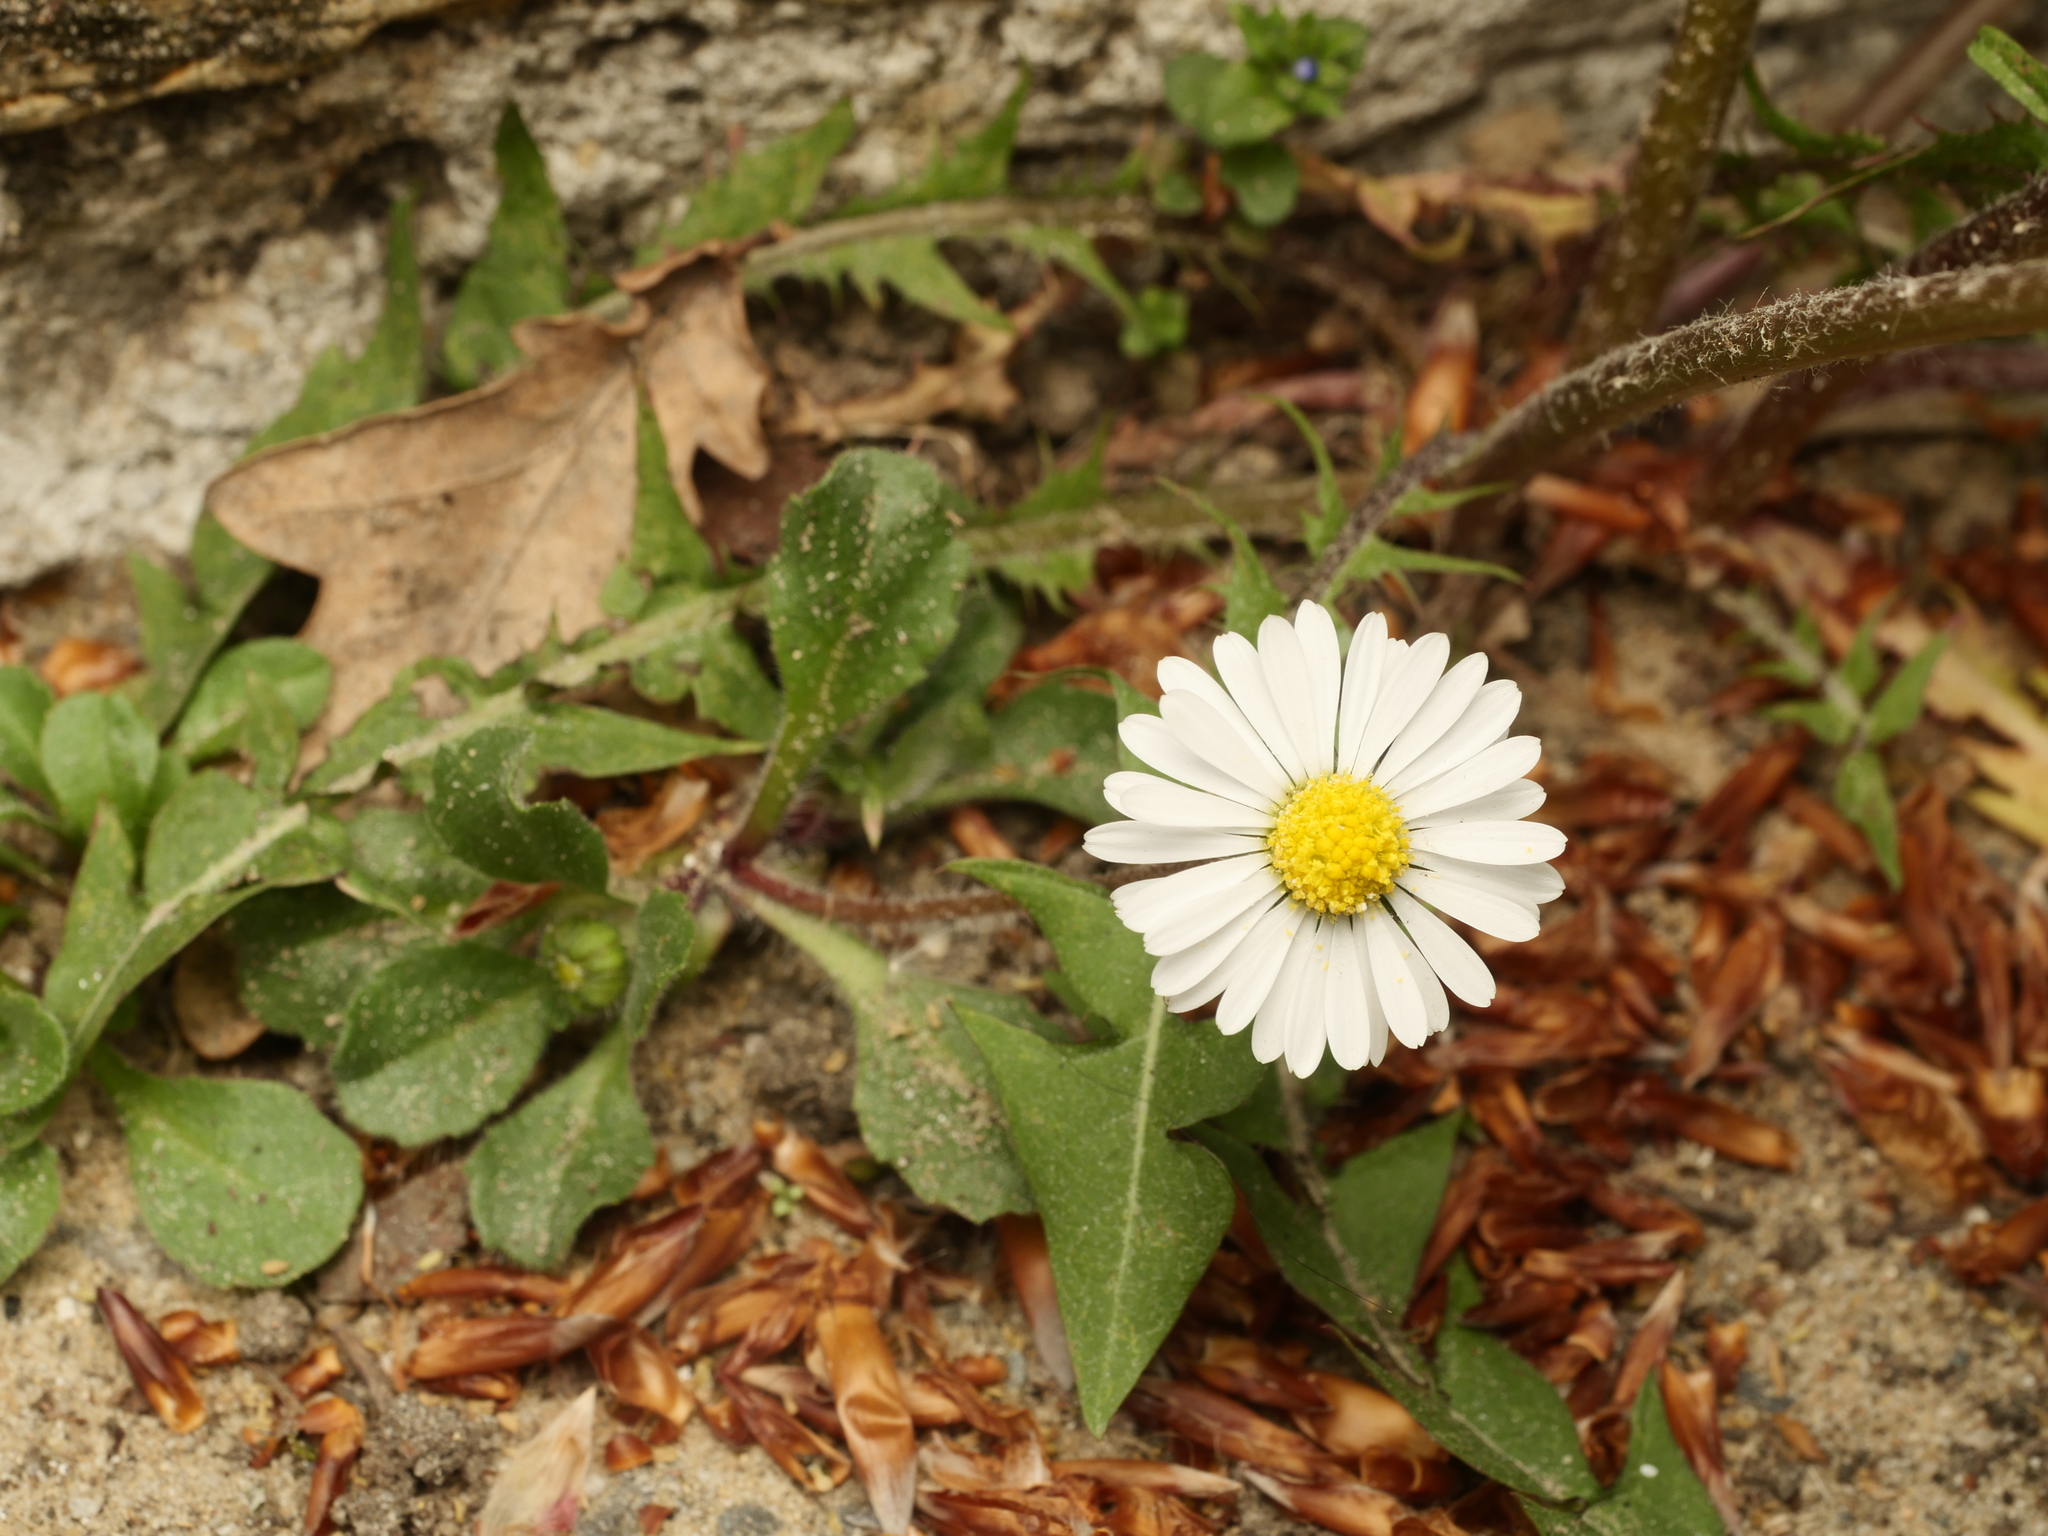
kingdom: Plantae
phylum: Tracheophyta
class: Magnoliopsida
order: Asterales
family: Asteraceae
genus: Bellis
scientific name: Bellis perennis
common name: Lawndaisy
